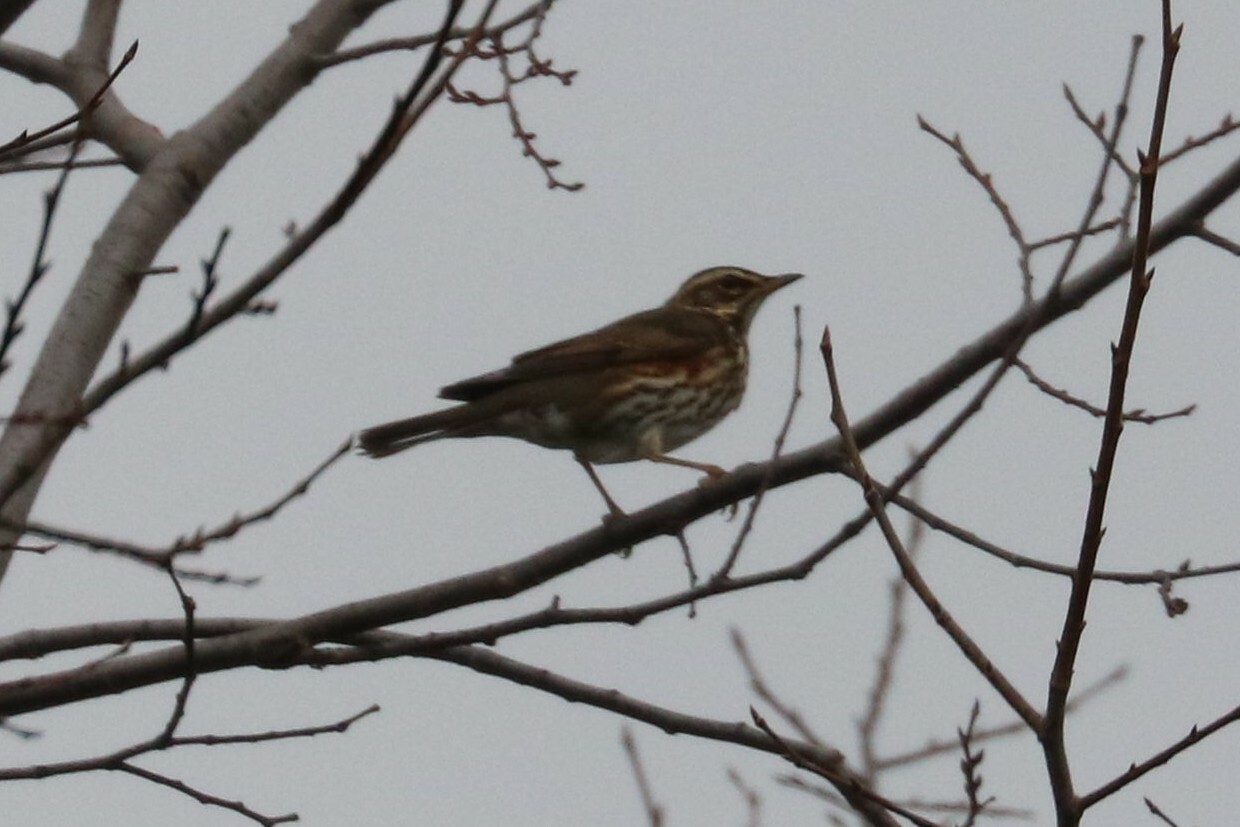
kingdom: Animalia
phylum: Chordata
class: Aves
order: Passeriformes
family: Turdidae
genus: Turdus
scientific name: Turdus iliacus
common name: Redwing
